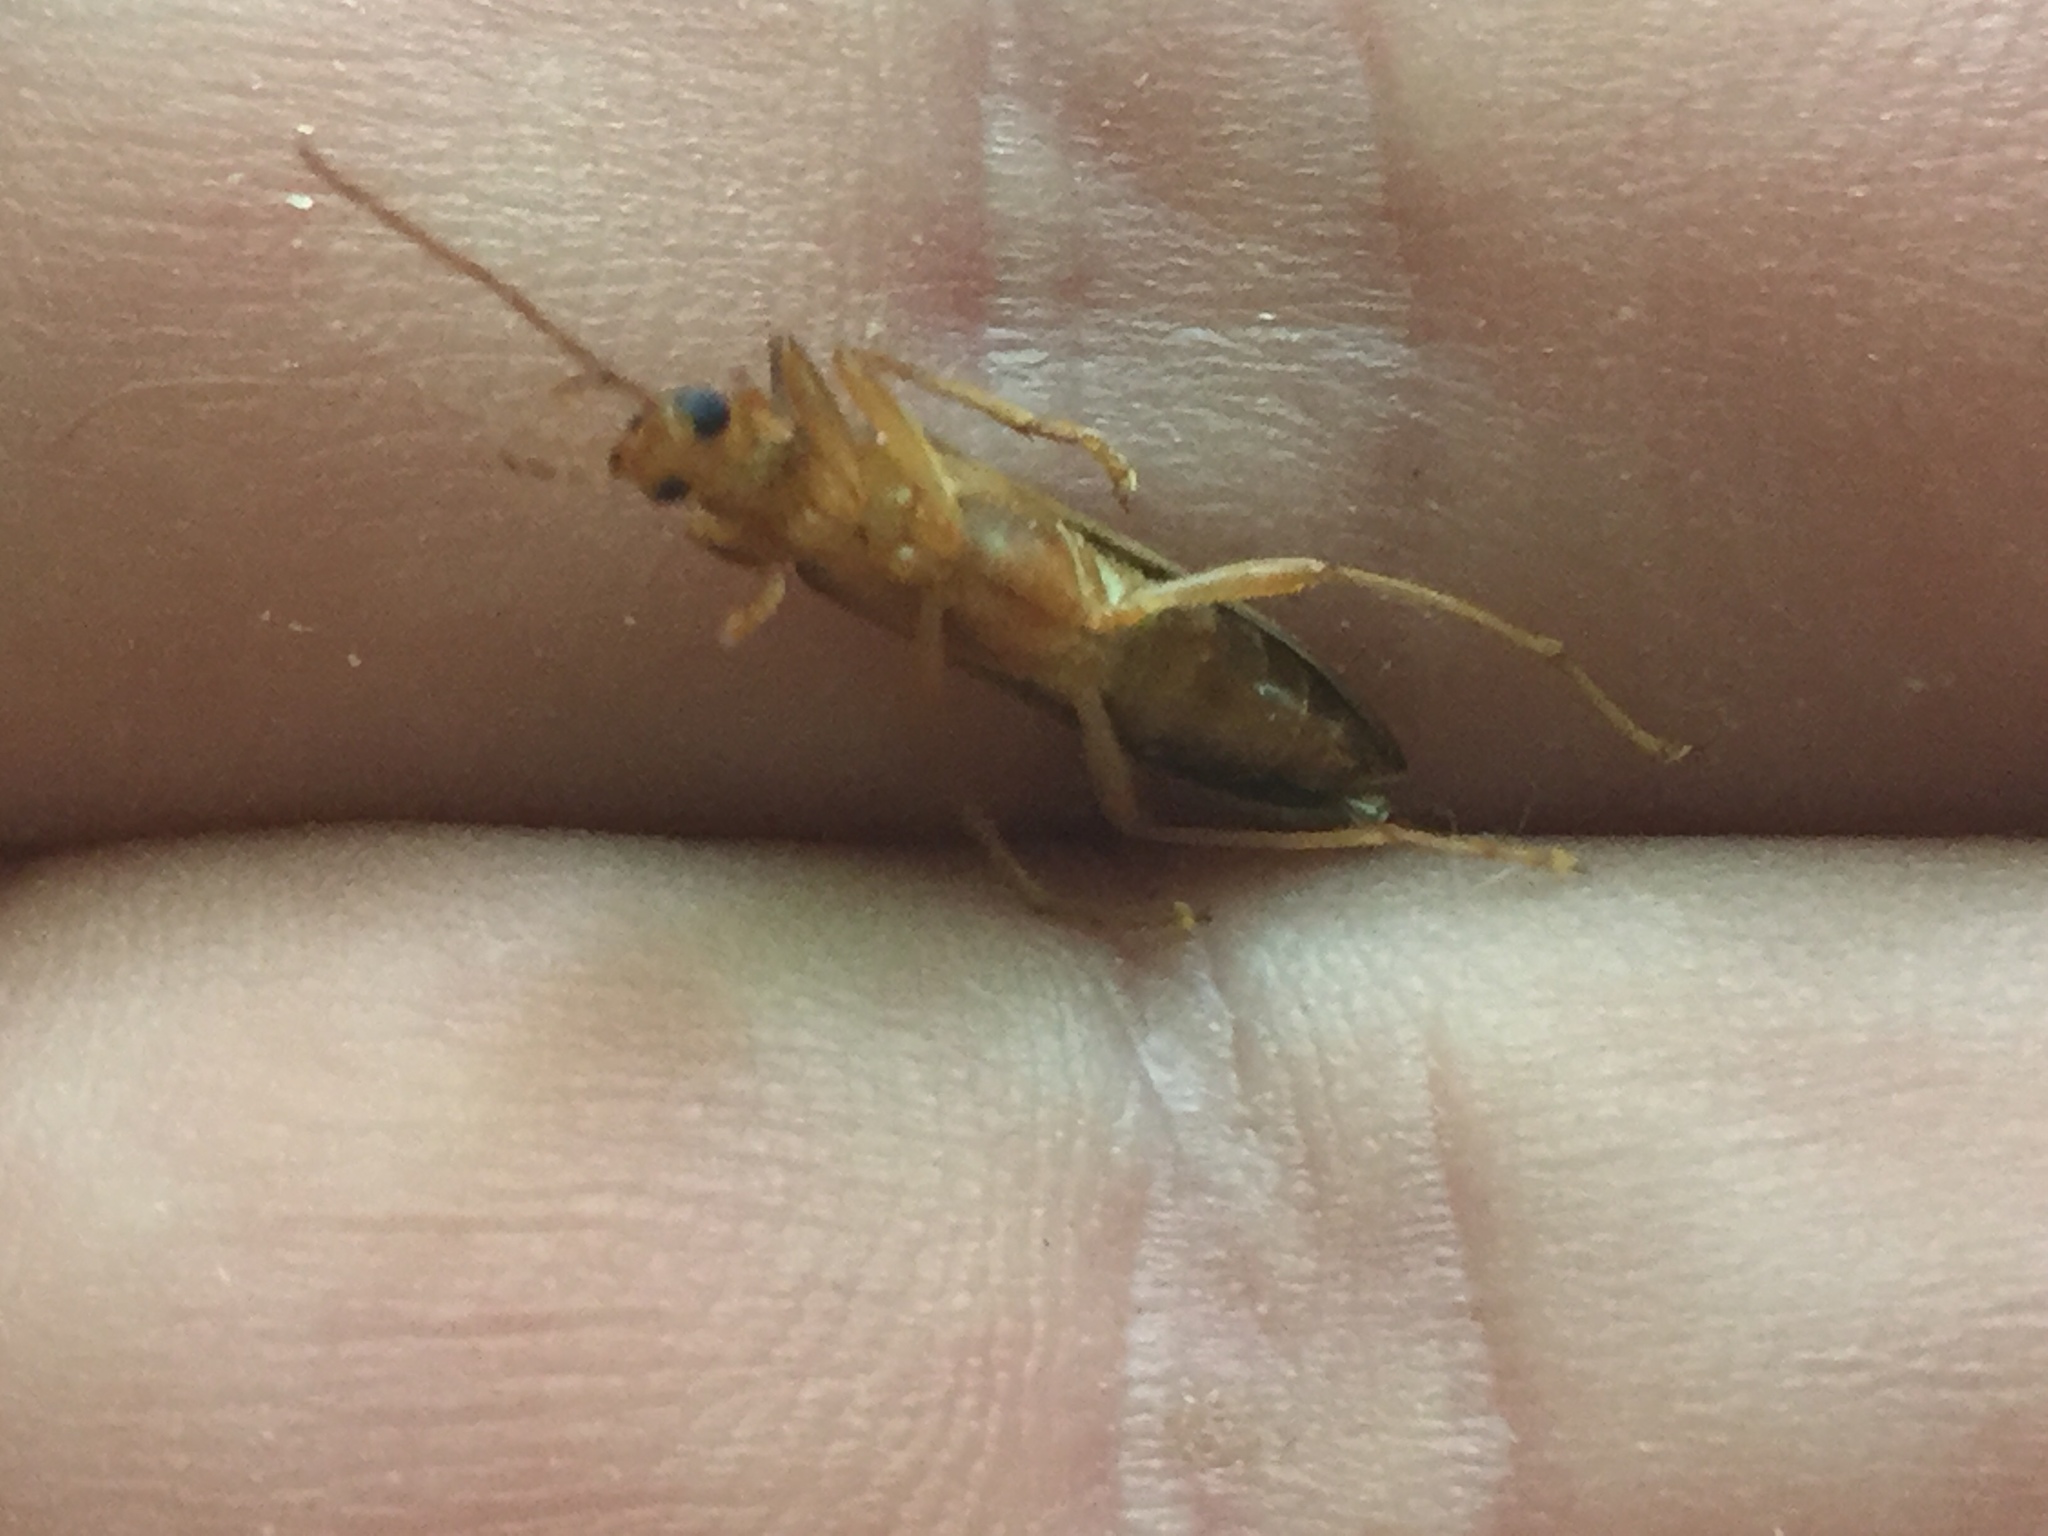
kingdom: Animalia
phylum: Arthropoda
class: Insecta
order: Coleoptera
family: Oedemeridae
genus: Thelyphassa
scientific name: Thelyphassa
